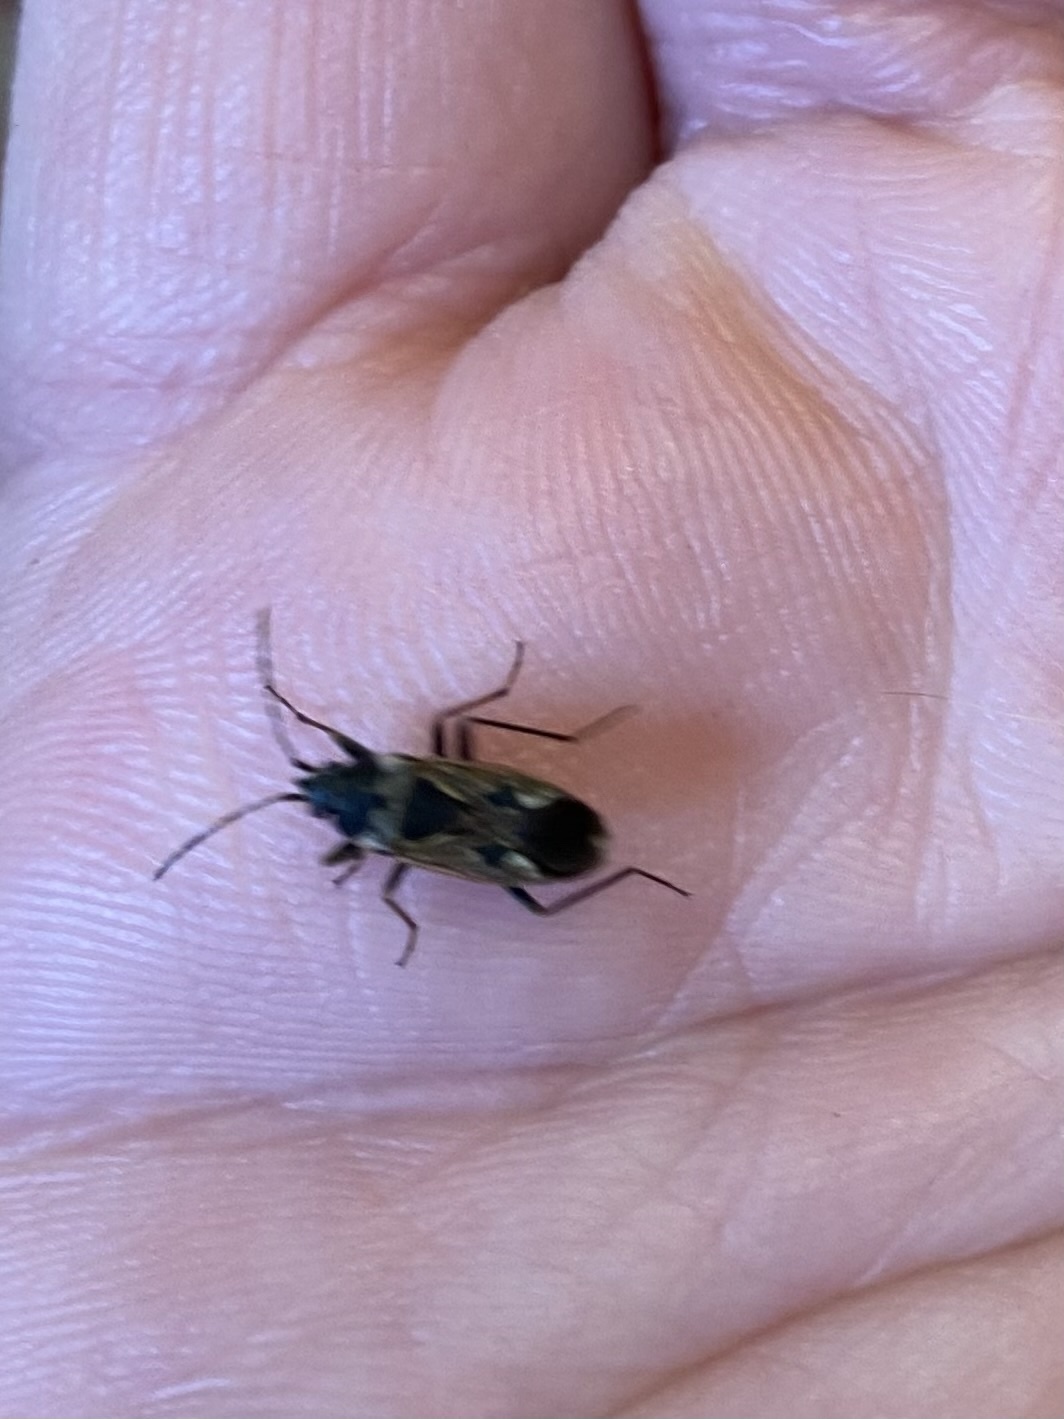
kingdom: Animalia
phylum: Arthropoda
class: Insecta
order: Hemiptera
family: Rhyparochromidae
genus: Rhyparochromus
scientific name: Rhyparochromus vulgaris
